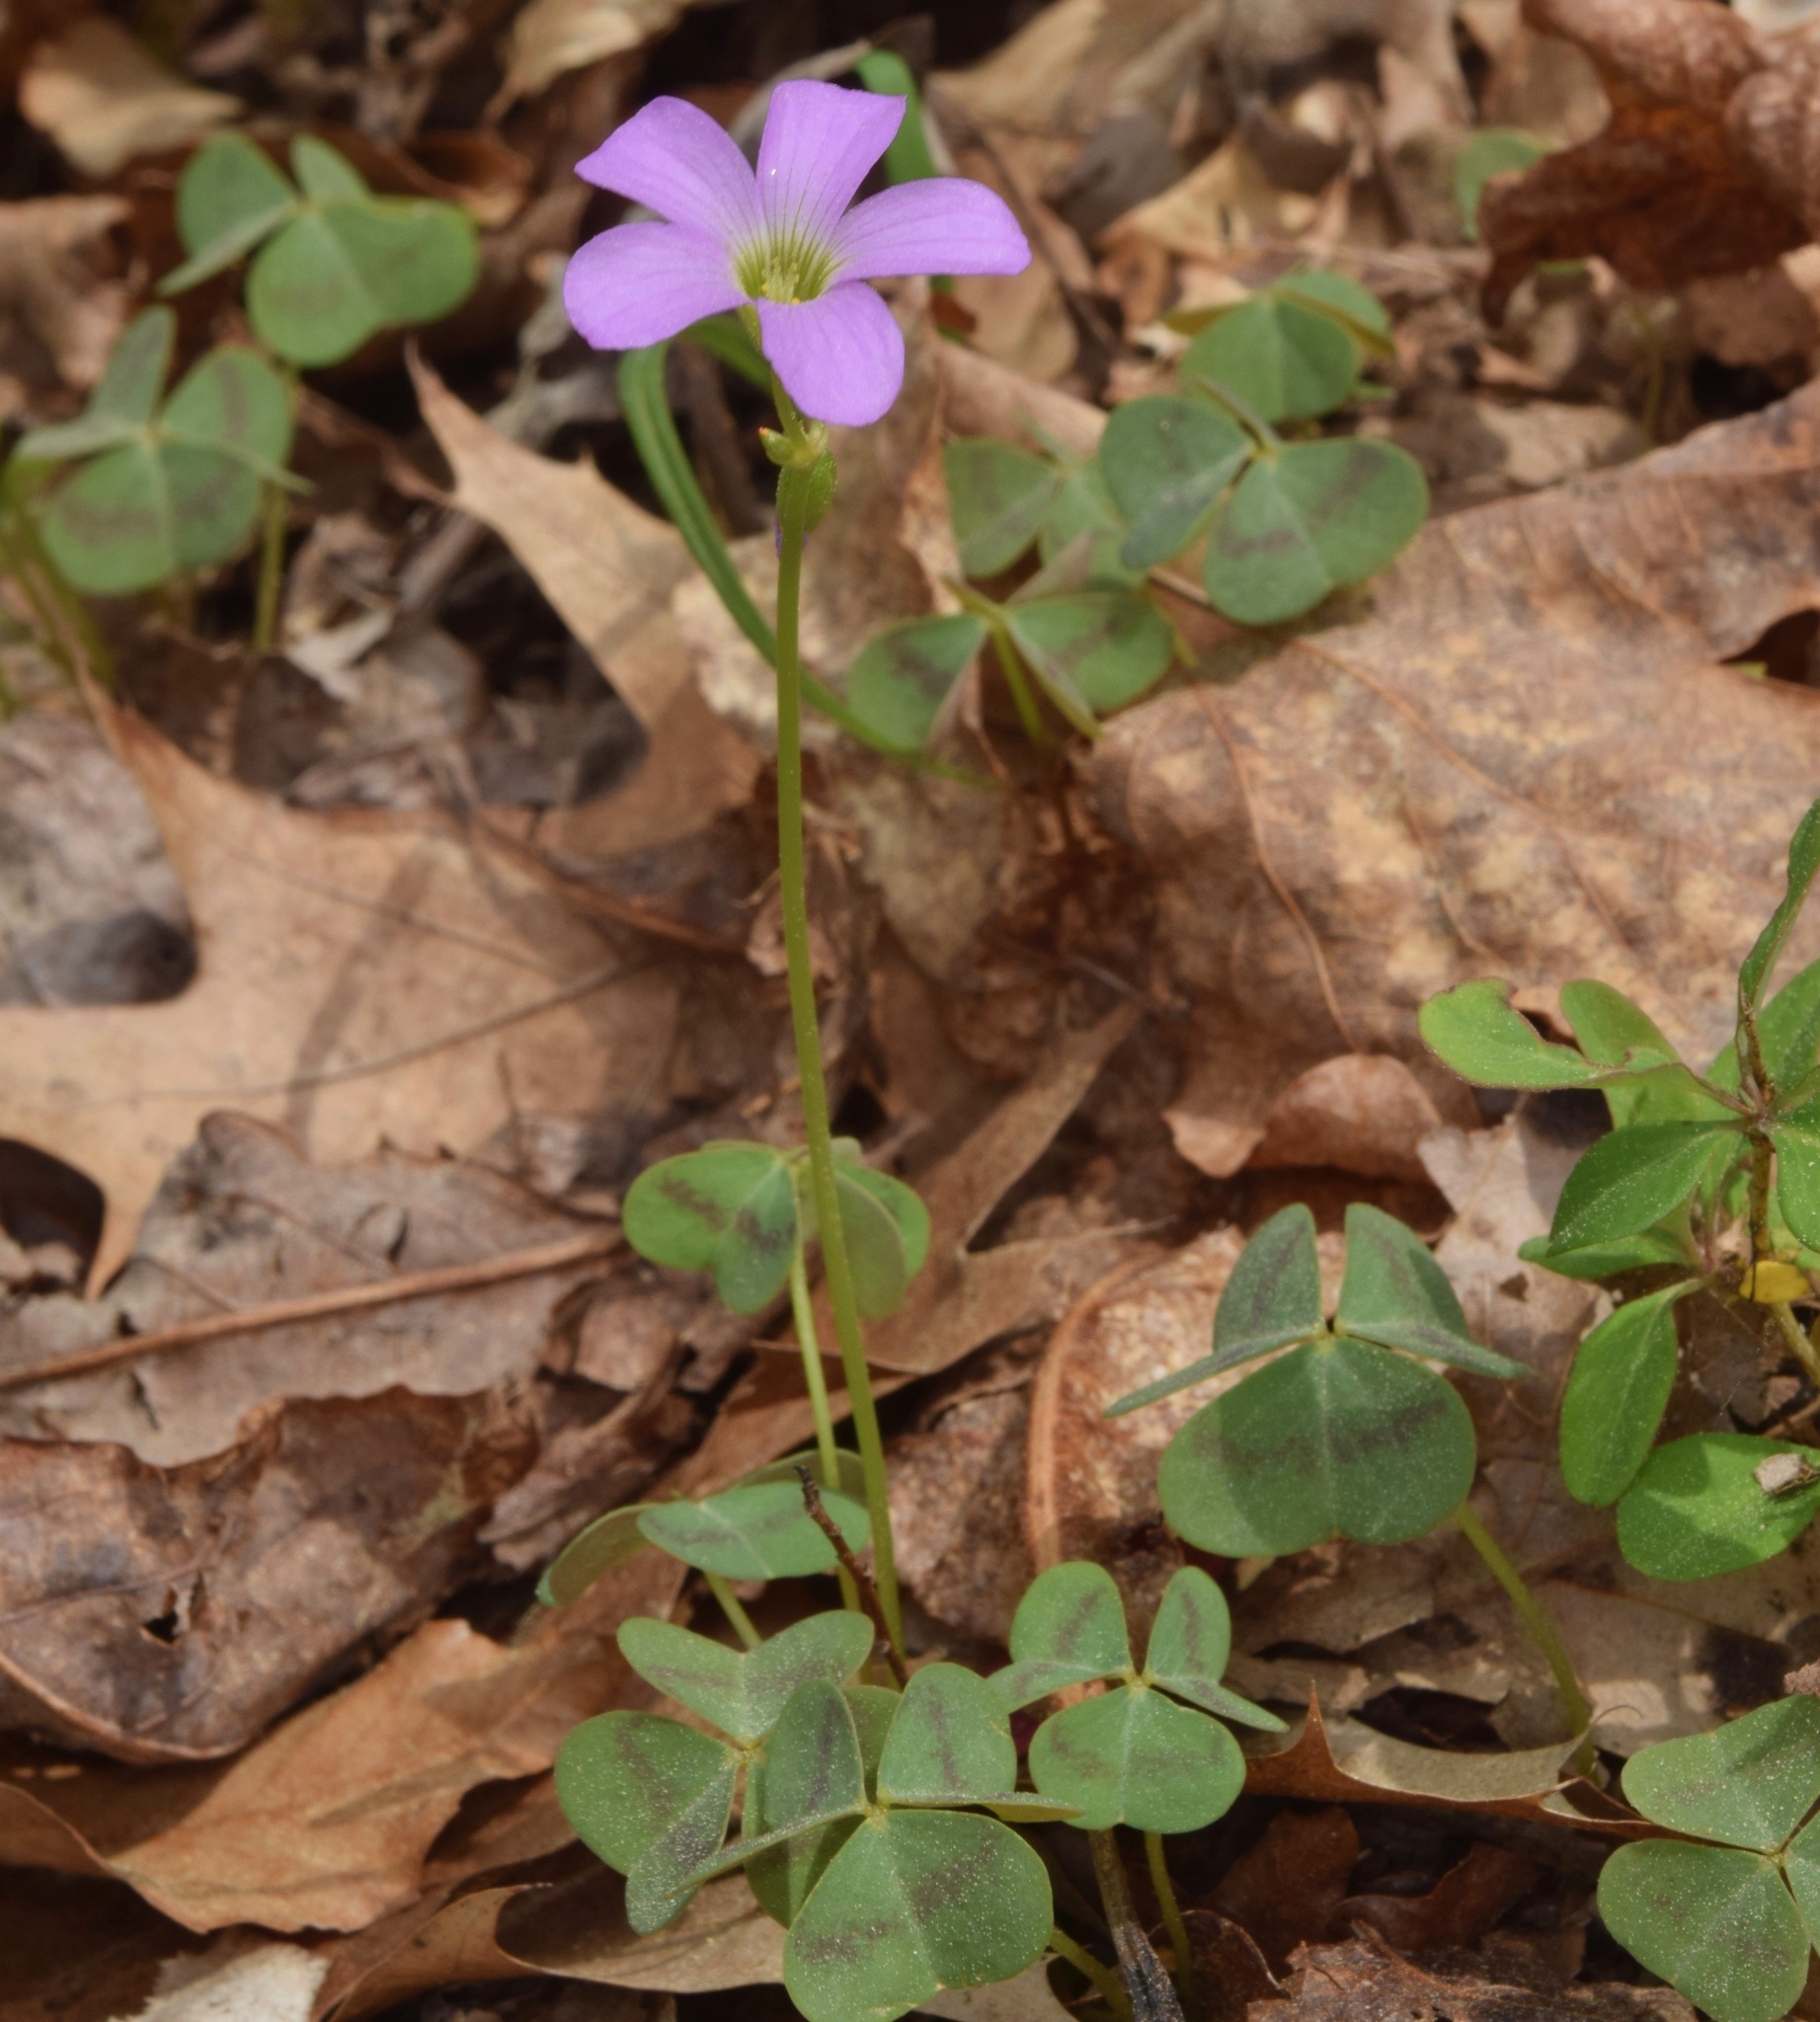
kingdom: Plantae
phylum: Tracheophyta
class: Magnoliopsida
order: Oxalidales
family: Oxalidaceae
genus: Oxalis
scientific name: Oxalis violacea
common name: Violet wood-sorrel
